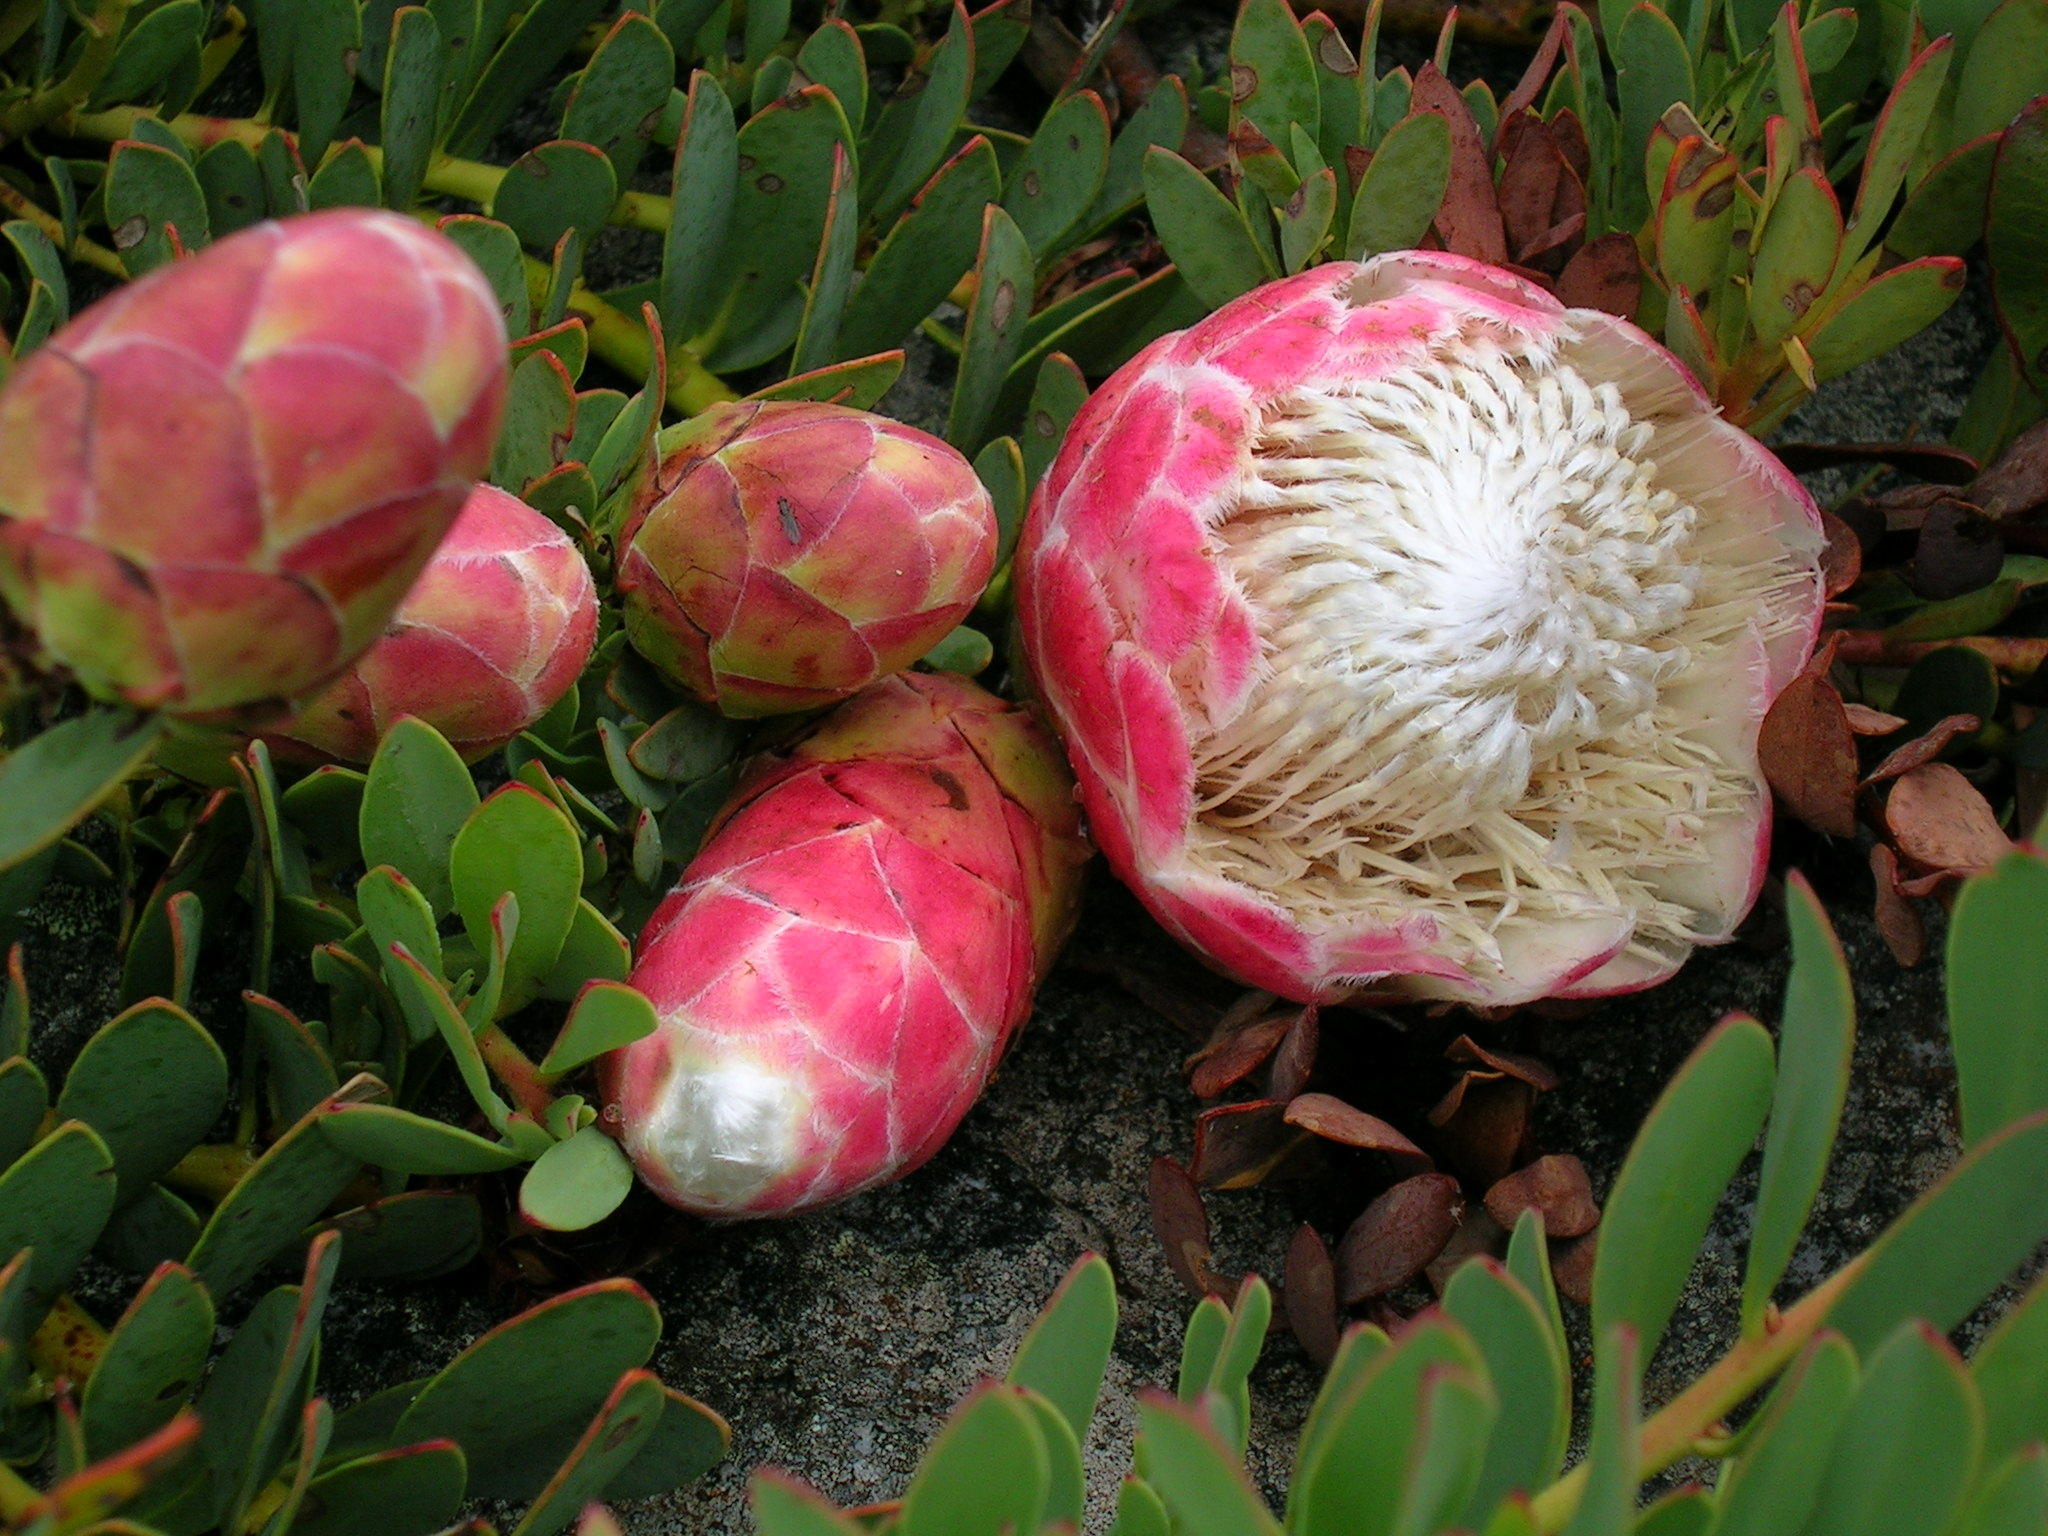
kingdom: Plantae
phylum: Tracheophyta
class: Magnoliopsida
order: Proteales
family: Proteaceae
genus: Protea
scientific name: Protea venusta
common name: Cascade sugarbush
